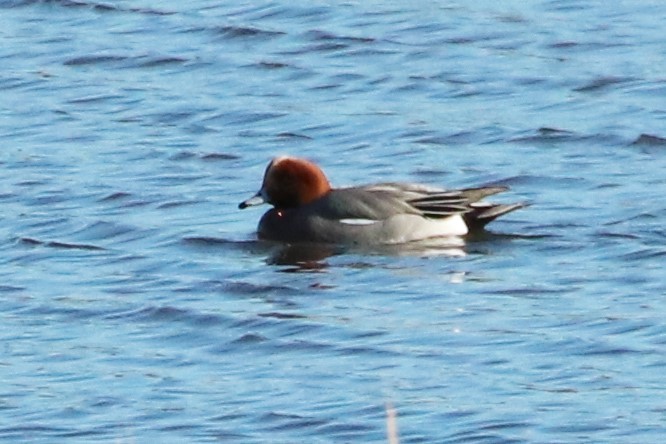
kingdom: Animalia
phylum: Chordata
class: Aves
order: Anseriformes
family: Anatidae
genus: Mareca
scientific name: Mareca penelope
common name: Eurasian wigeon
